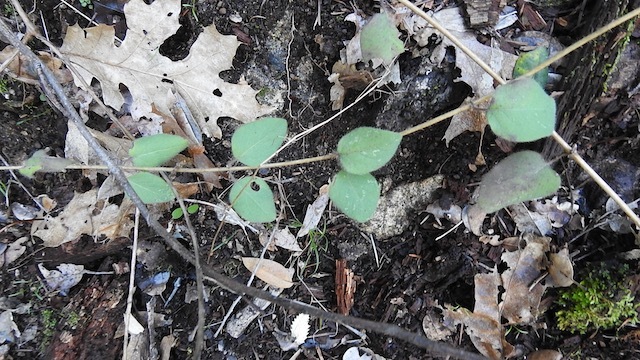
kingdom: Plantae
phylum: Tracheophyta
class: Magnoliopsida
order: Dipsacales
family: Caprifoliaceae
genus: Lonicera
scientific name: Lonicera hispidula
